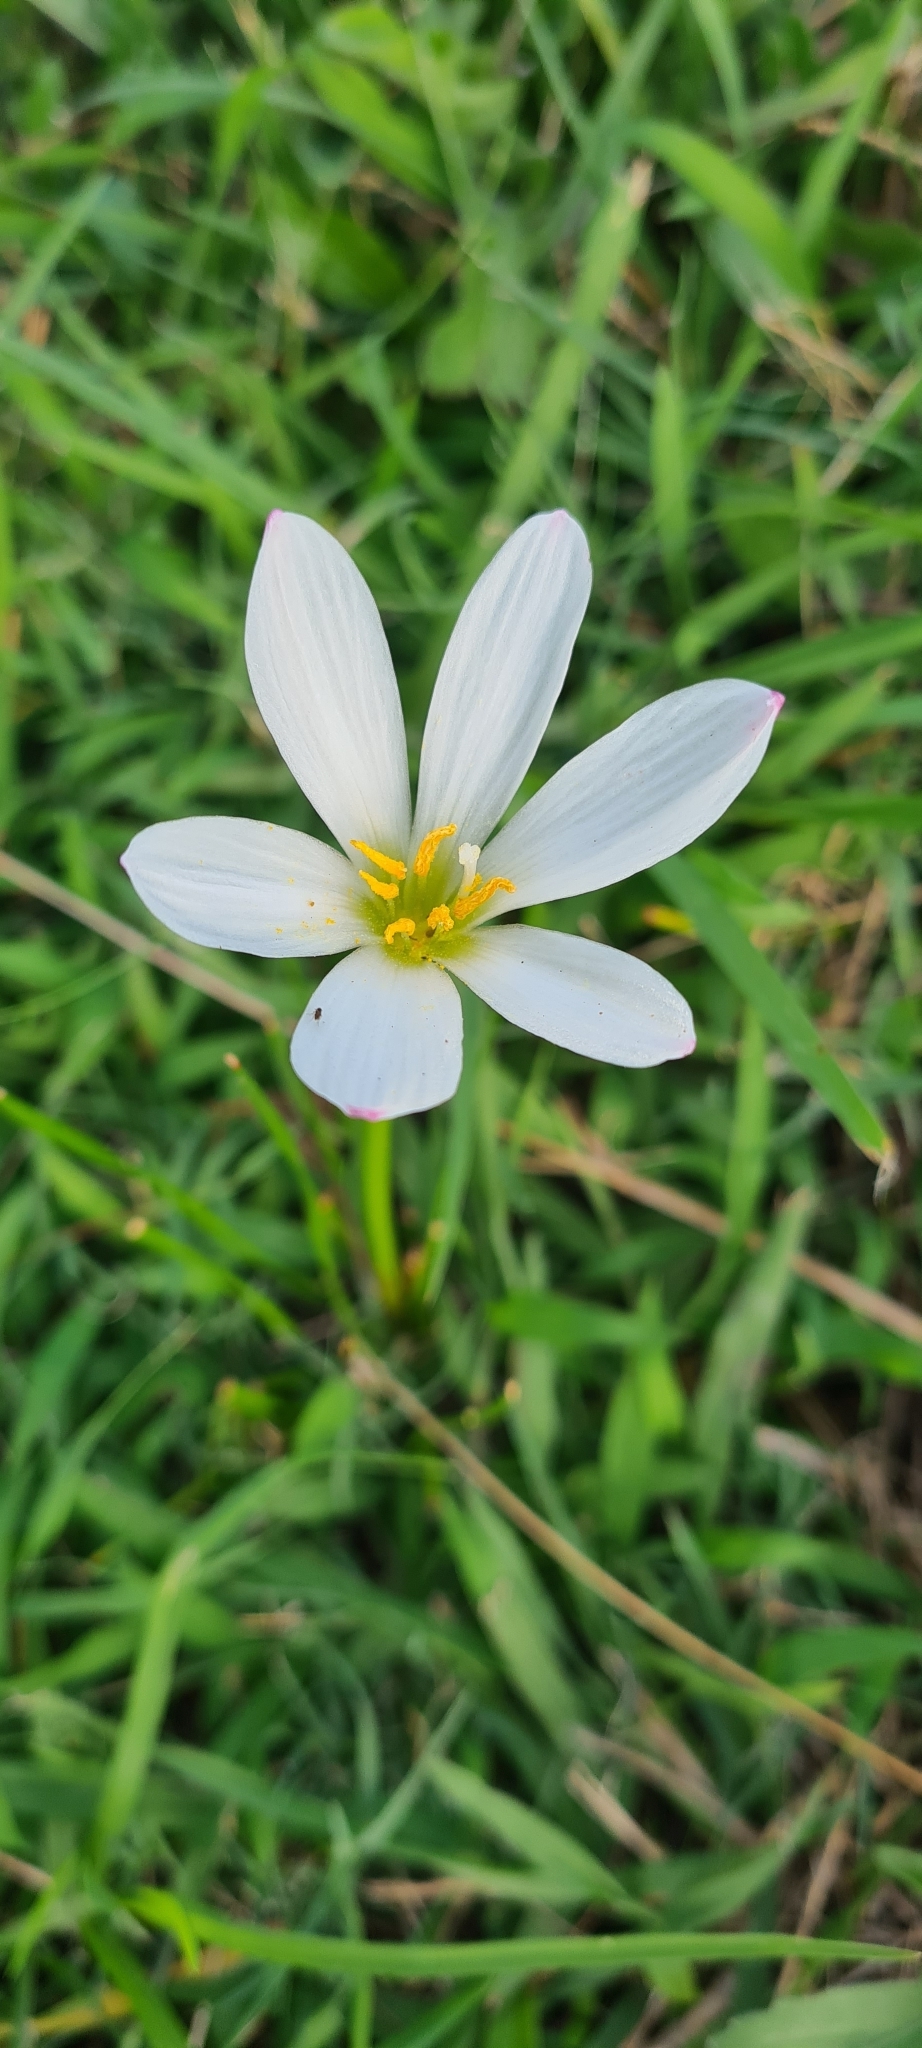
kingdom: Plantae
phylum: Tracheophyta
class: Liliopsida
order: Asparagales
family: Amaryllidaceae
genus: Zephyranthes
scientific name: Zephyranthes candida
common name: Autumn zephyrlily
